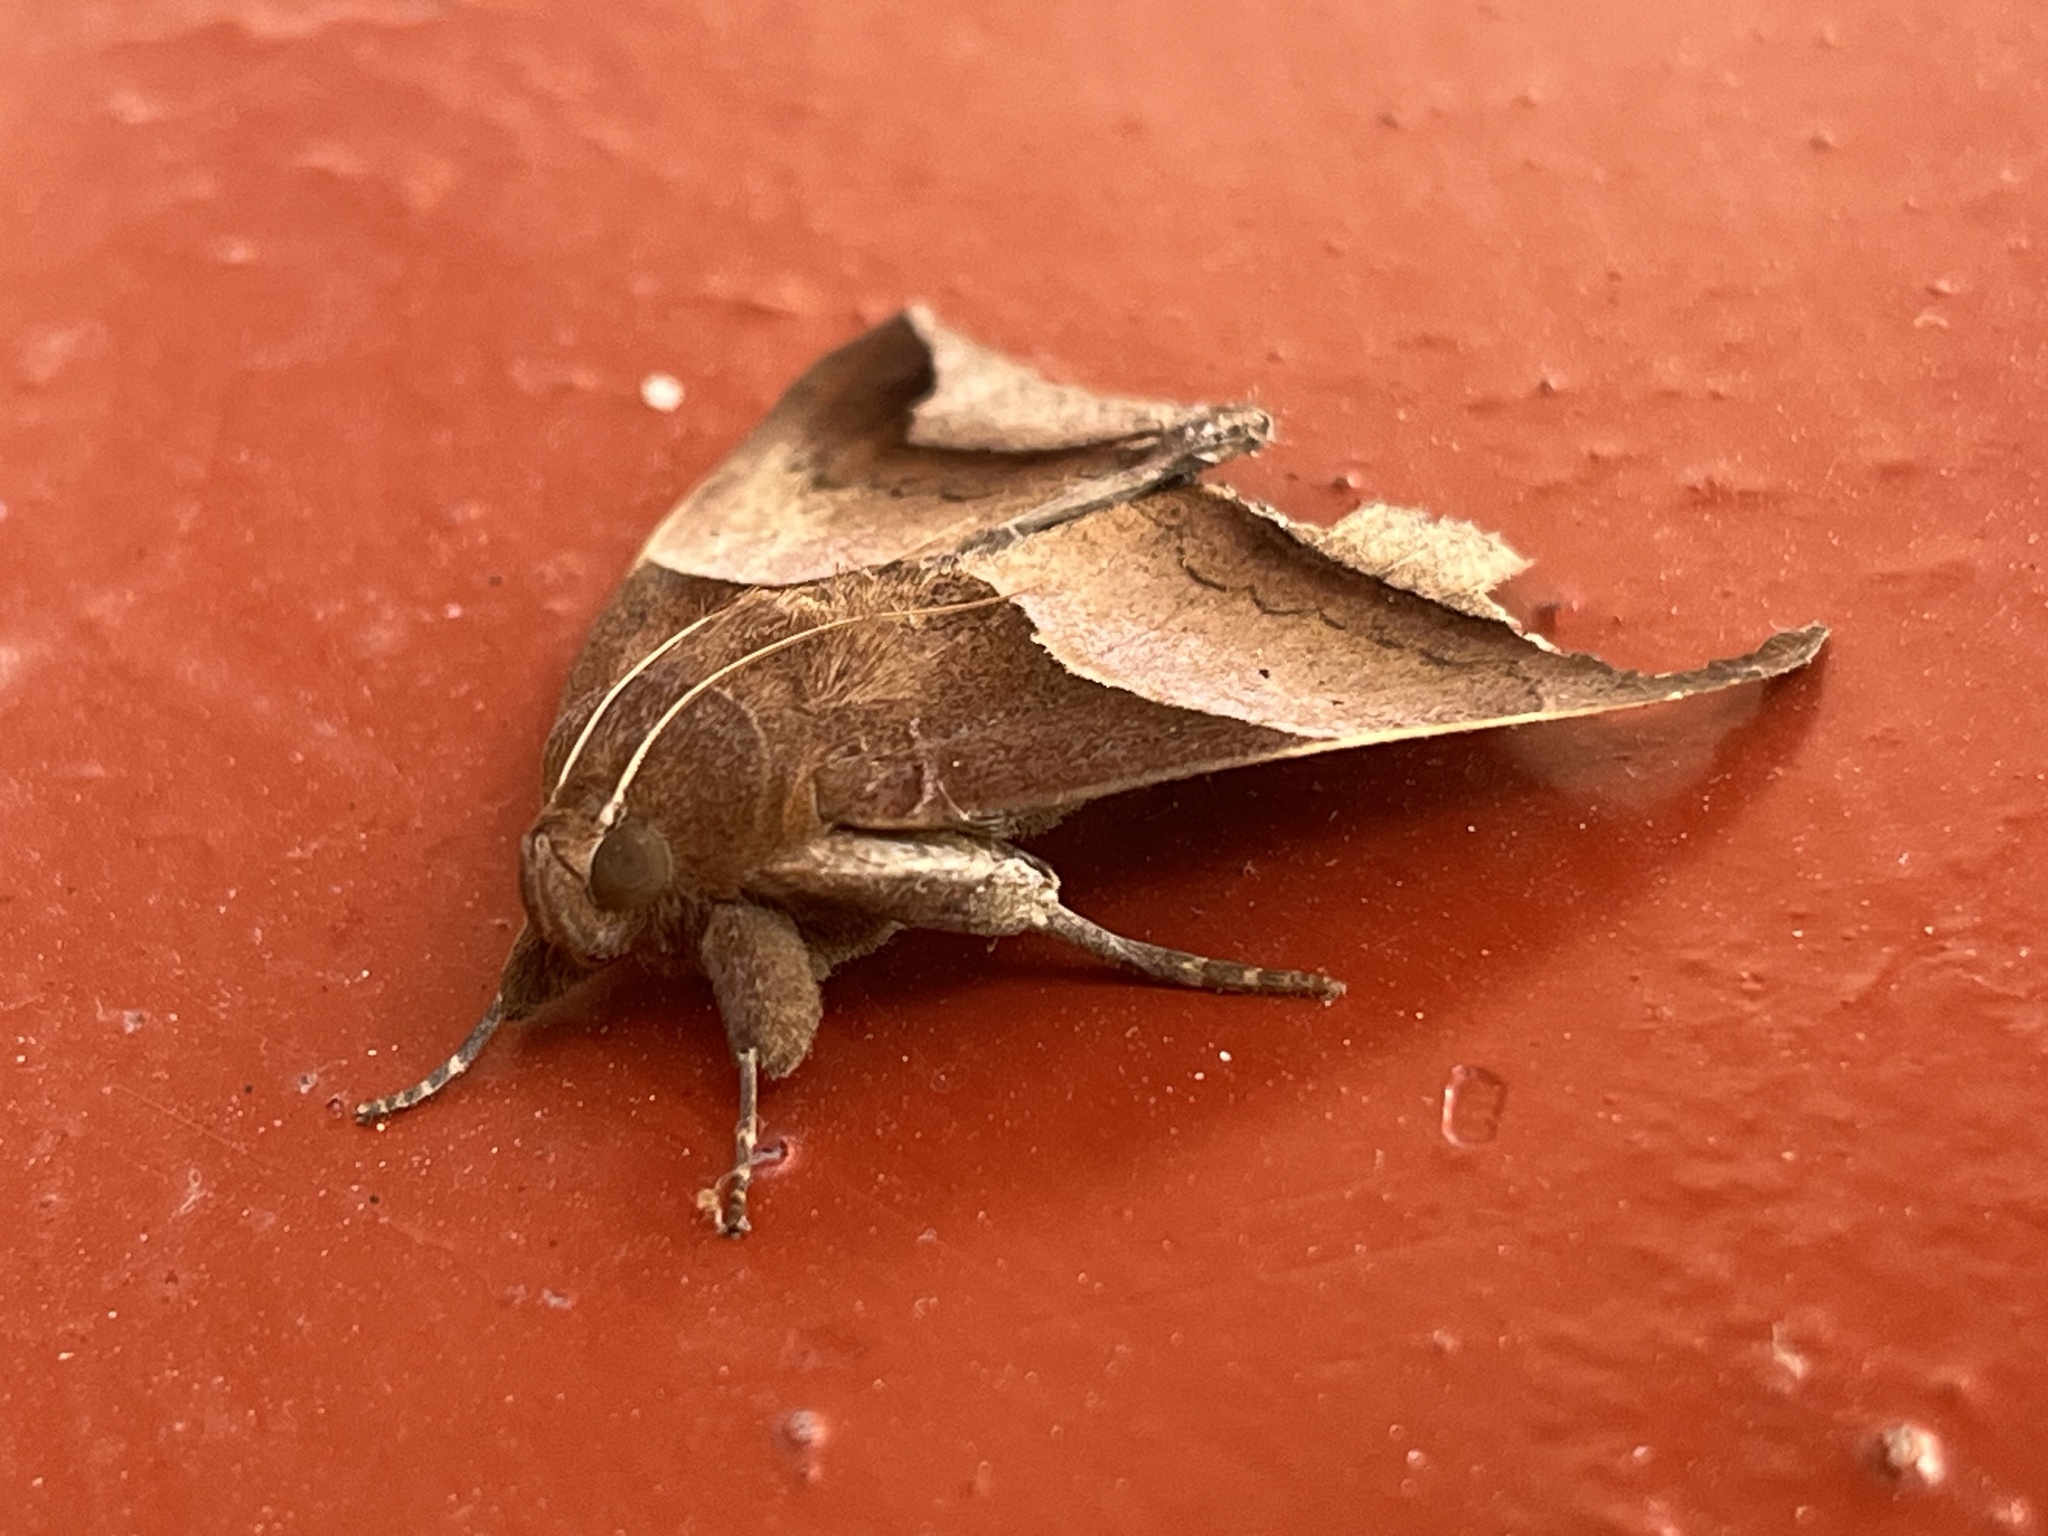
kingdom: Animalia
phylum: Arthropoda
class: Insecta
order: Lepidoptera
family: Erebidae
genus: Achaea
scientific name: Achaea echo
